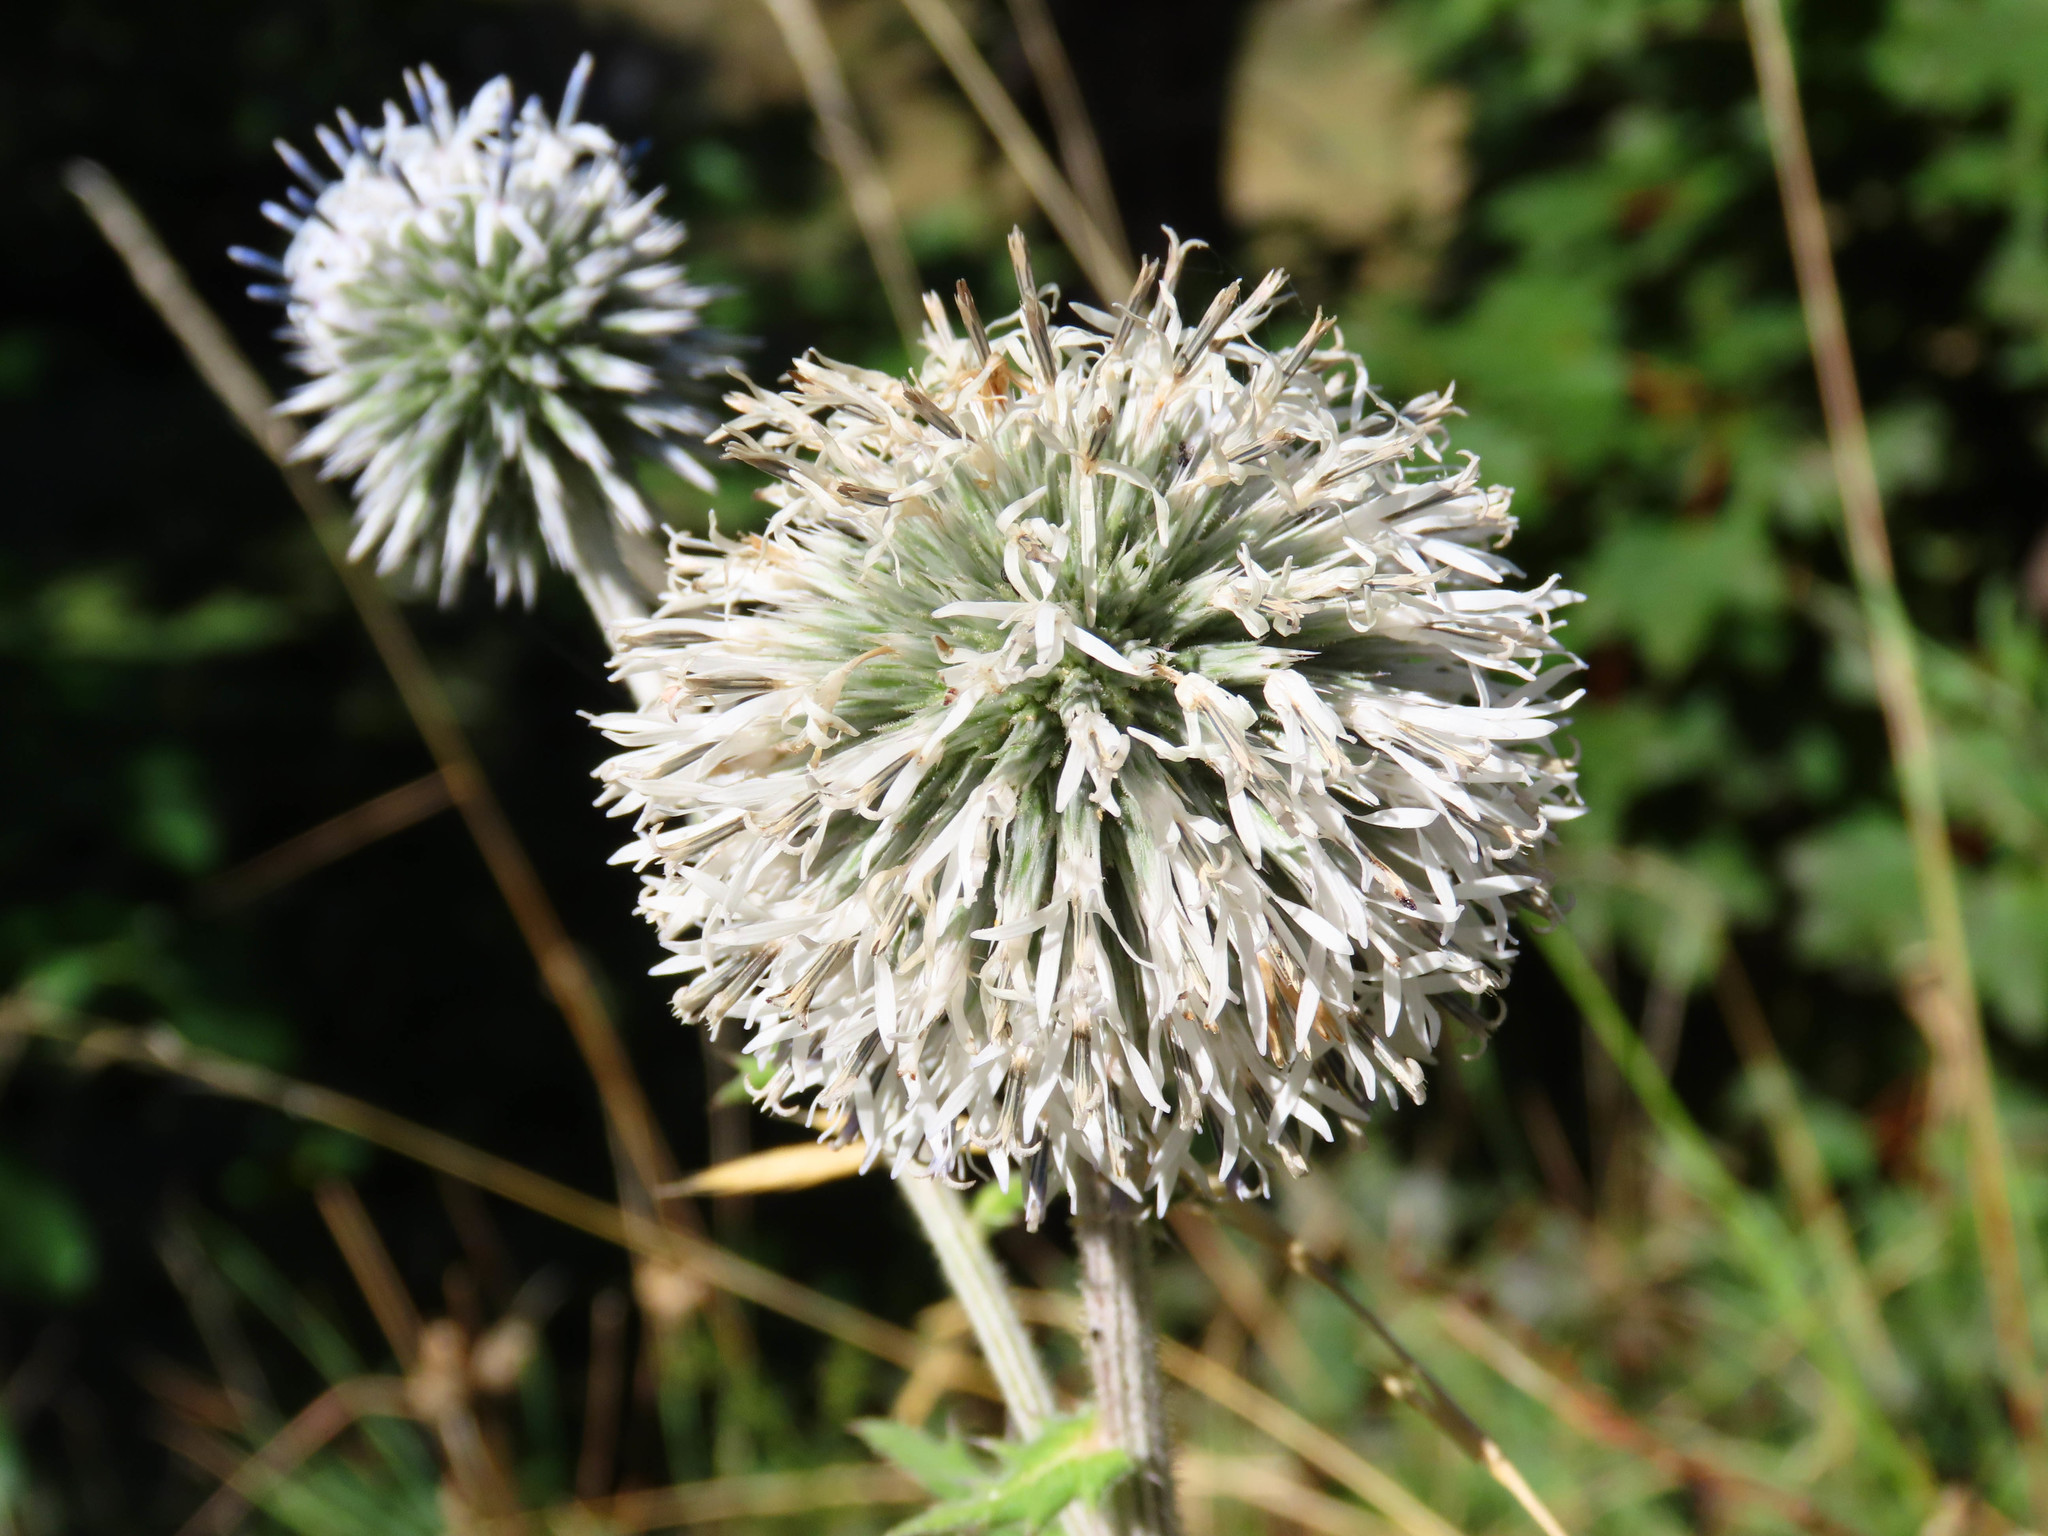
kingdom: Plantae
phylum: Tracheophyta
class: Magnoliopsida
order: Asterales
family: Asteraceae
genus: Echinops
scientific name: Echinops sphaerocephalus
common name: Glandular globe-thistle
